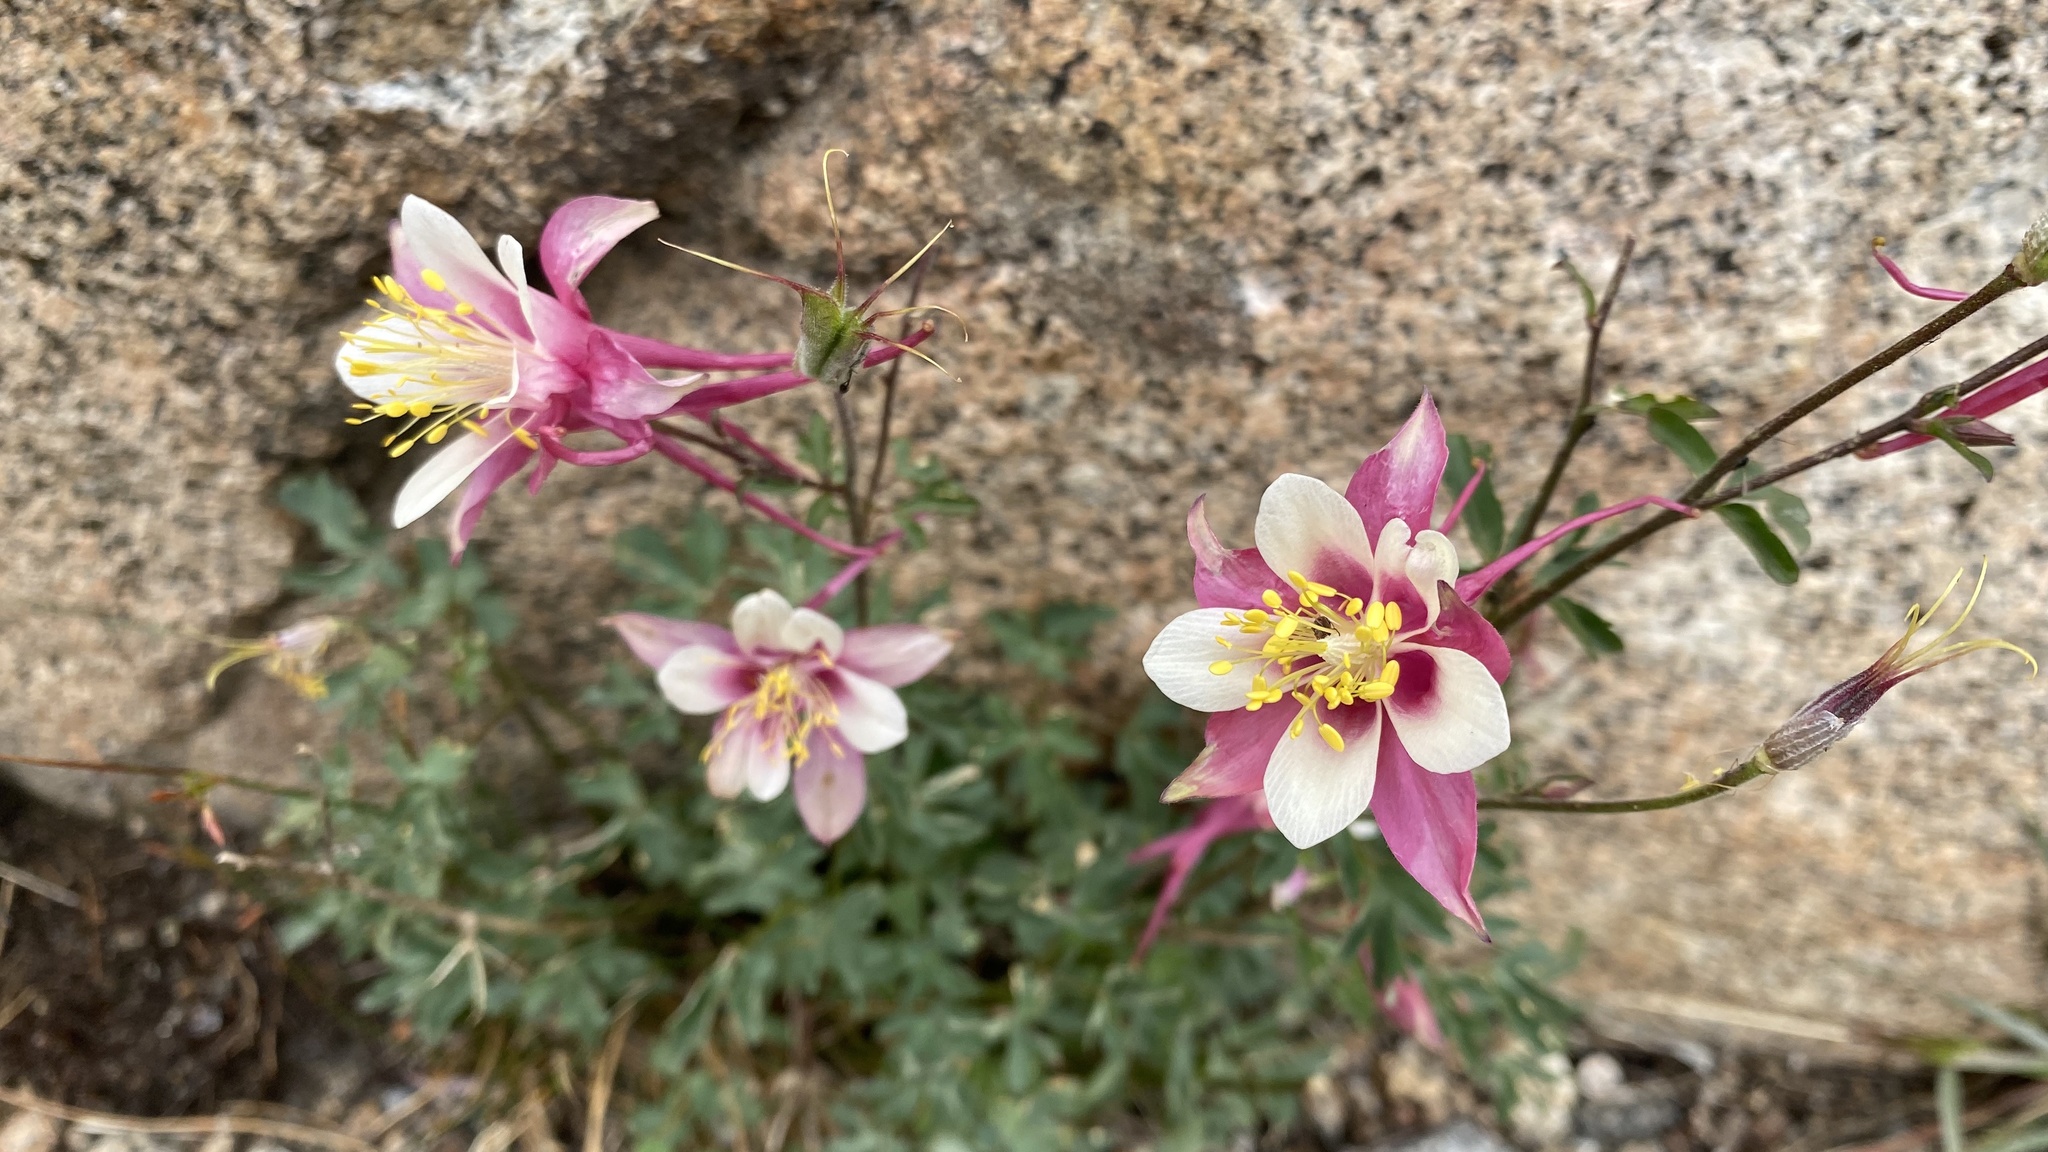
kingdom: Plantae
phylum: Tracheophyta
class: Magnoliopsida
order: Ranunculales
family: Ranunculaceae
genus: Aquilegia
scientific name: Aquilegia pubescens
